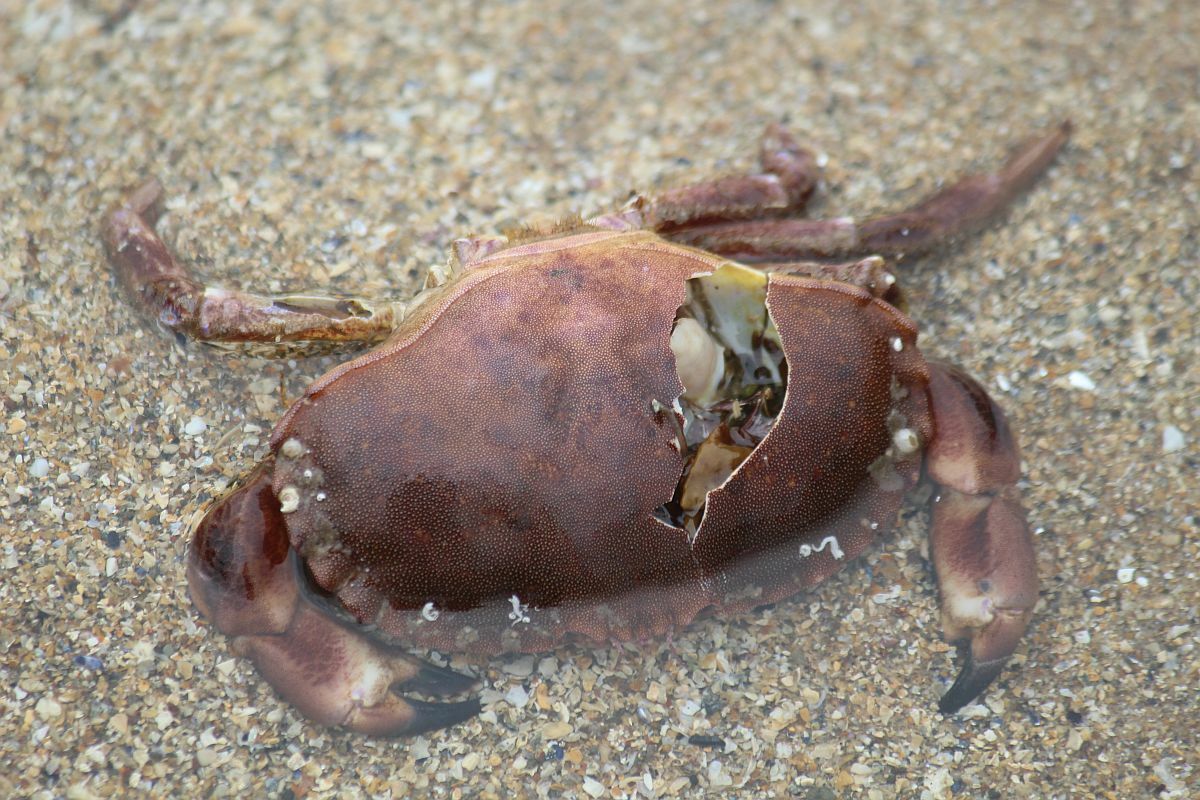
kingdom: Animalia
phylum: Arthropoda
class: Malacostraca
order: Decapoda
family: Cancridae
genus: Cancer
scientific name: Cancer pagurus
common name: Edible crab
